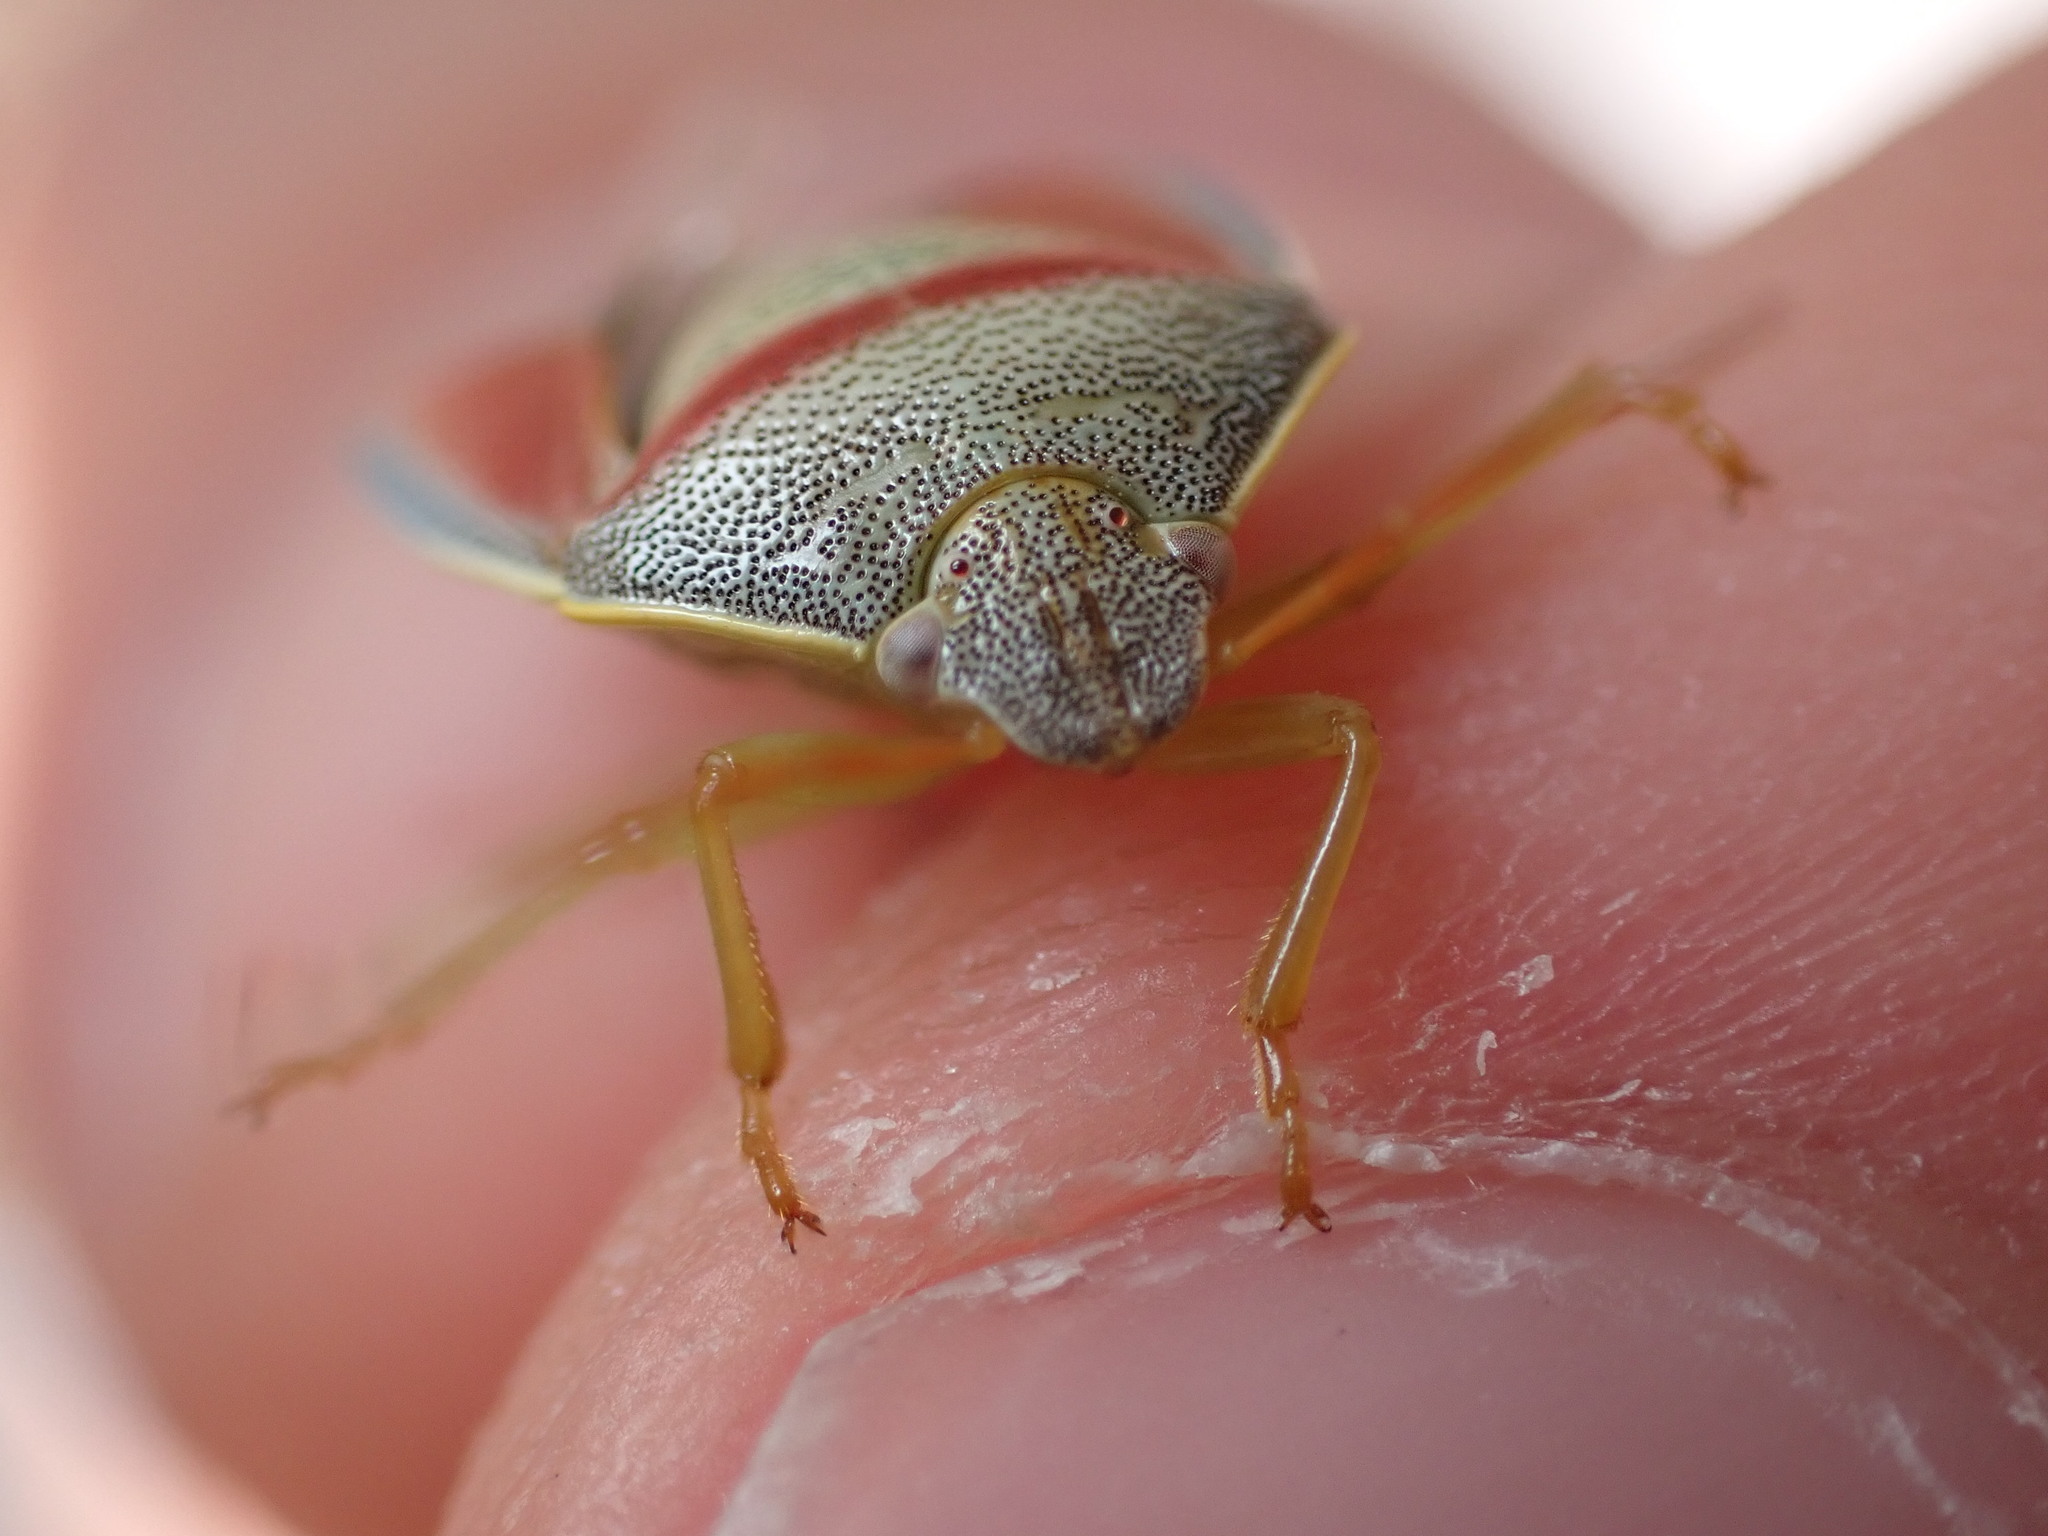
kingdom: Animalia
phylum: Arthropoda
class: Insecta
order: Hemiptera
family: Pentatomidae
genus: Piezodorus
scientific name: Piezodorus lituratus
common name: Stink bug
